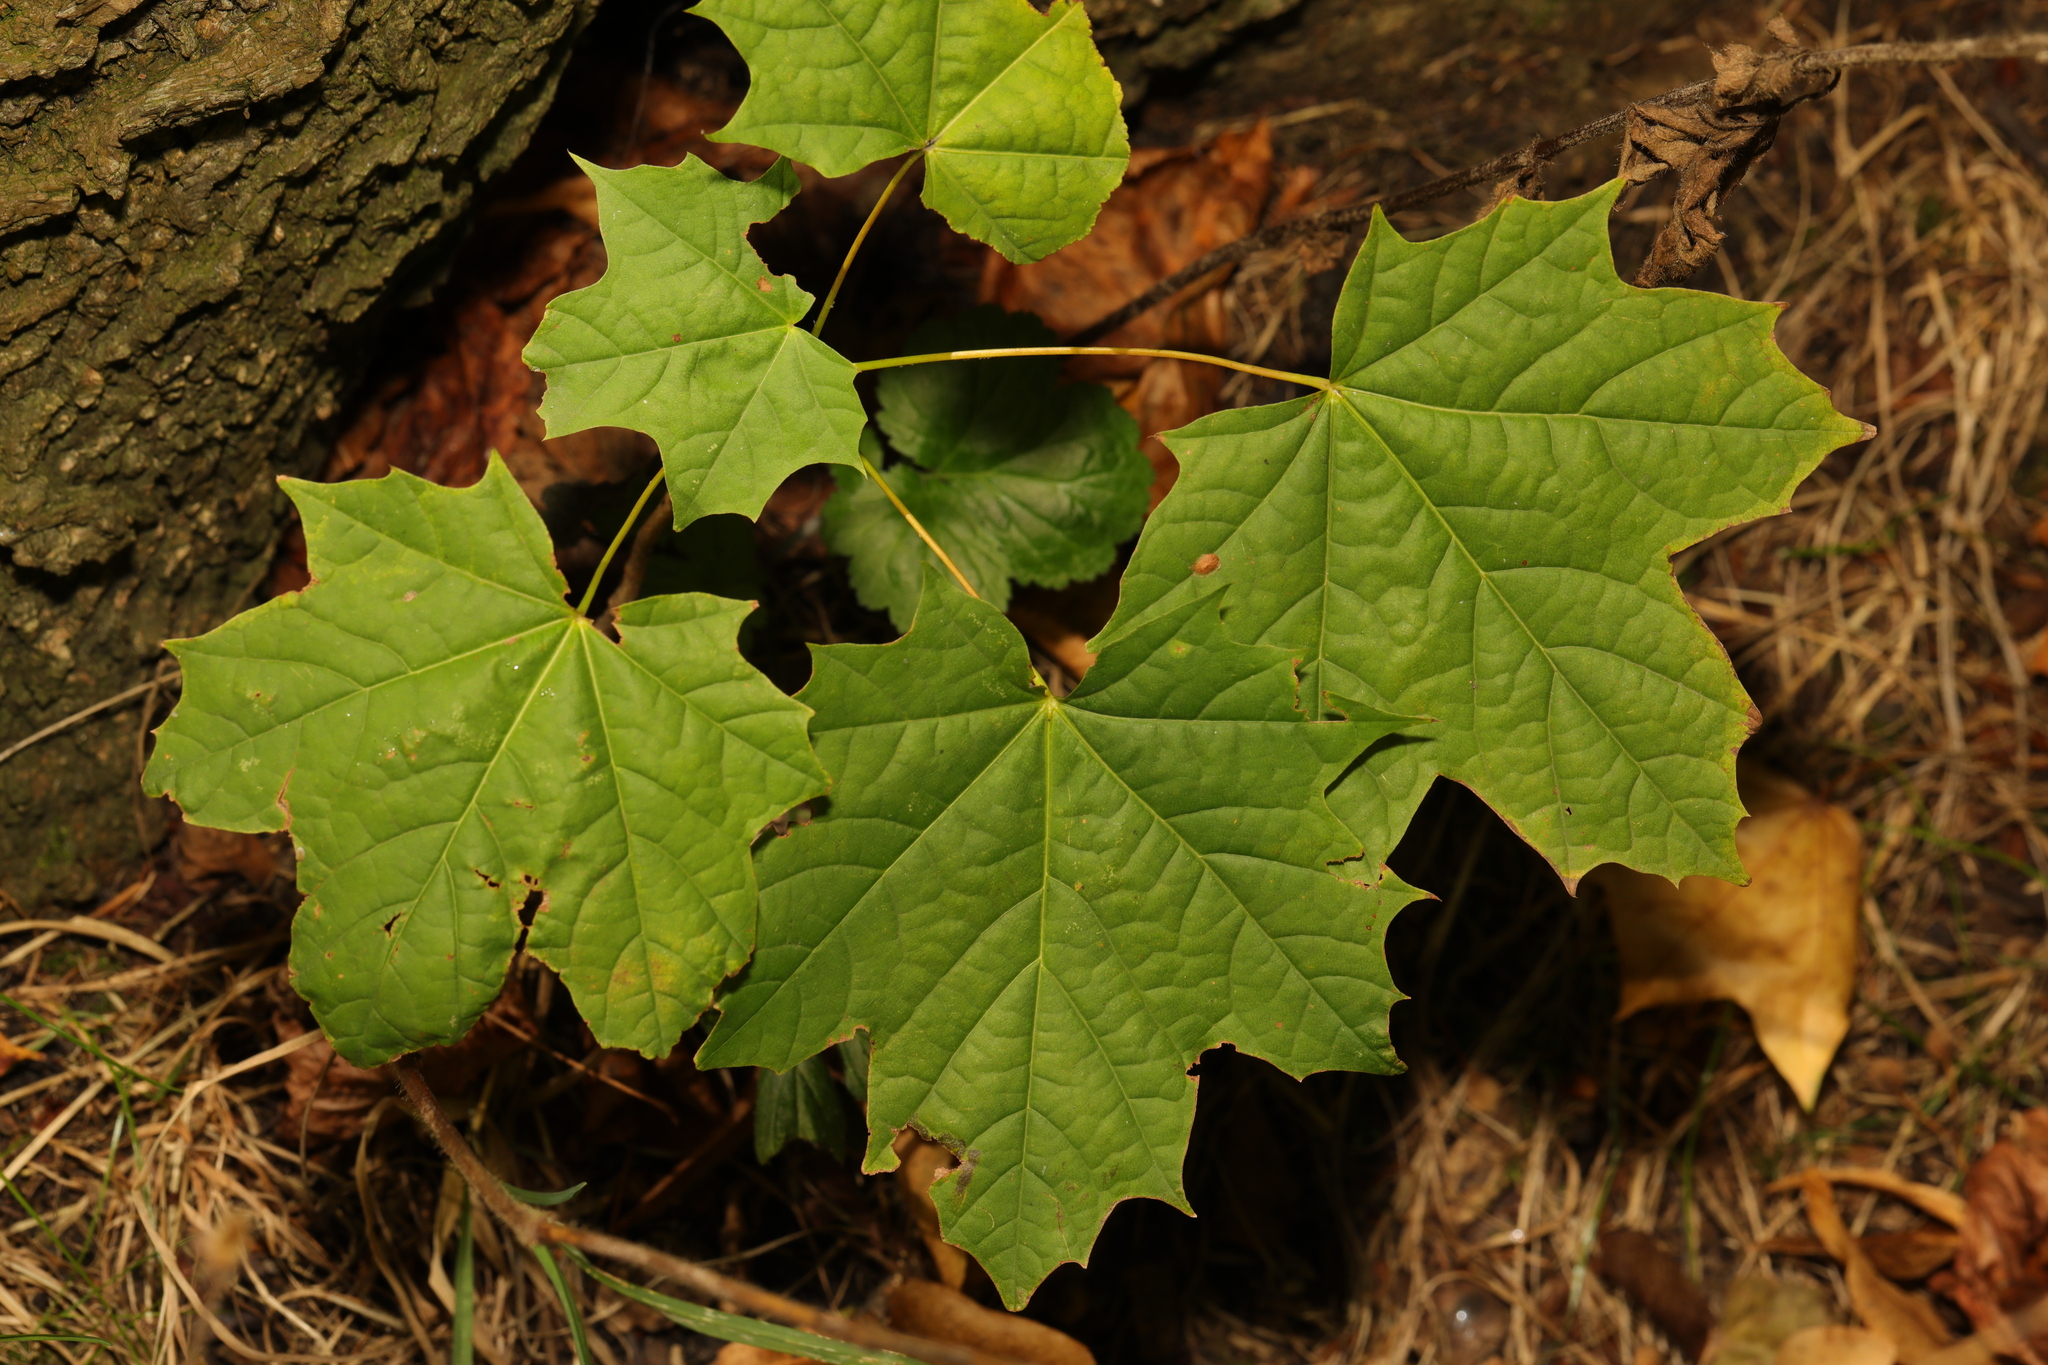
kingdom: Plantae
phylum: Tracheophyta
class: Magnoliopsida
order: Sapindales
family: Sapindaceae
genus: Acer
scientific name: Acer platanoides
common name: Norway maple
